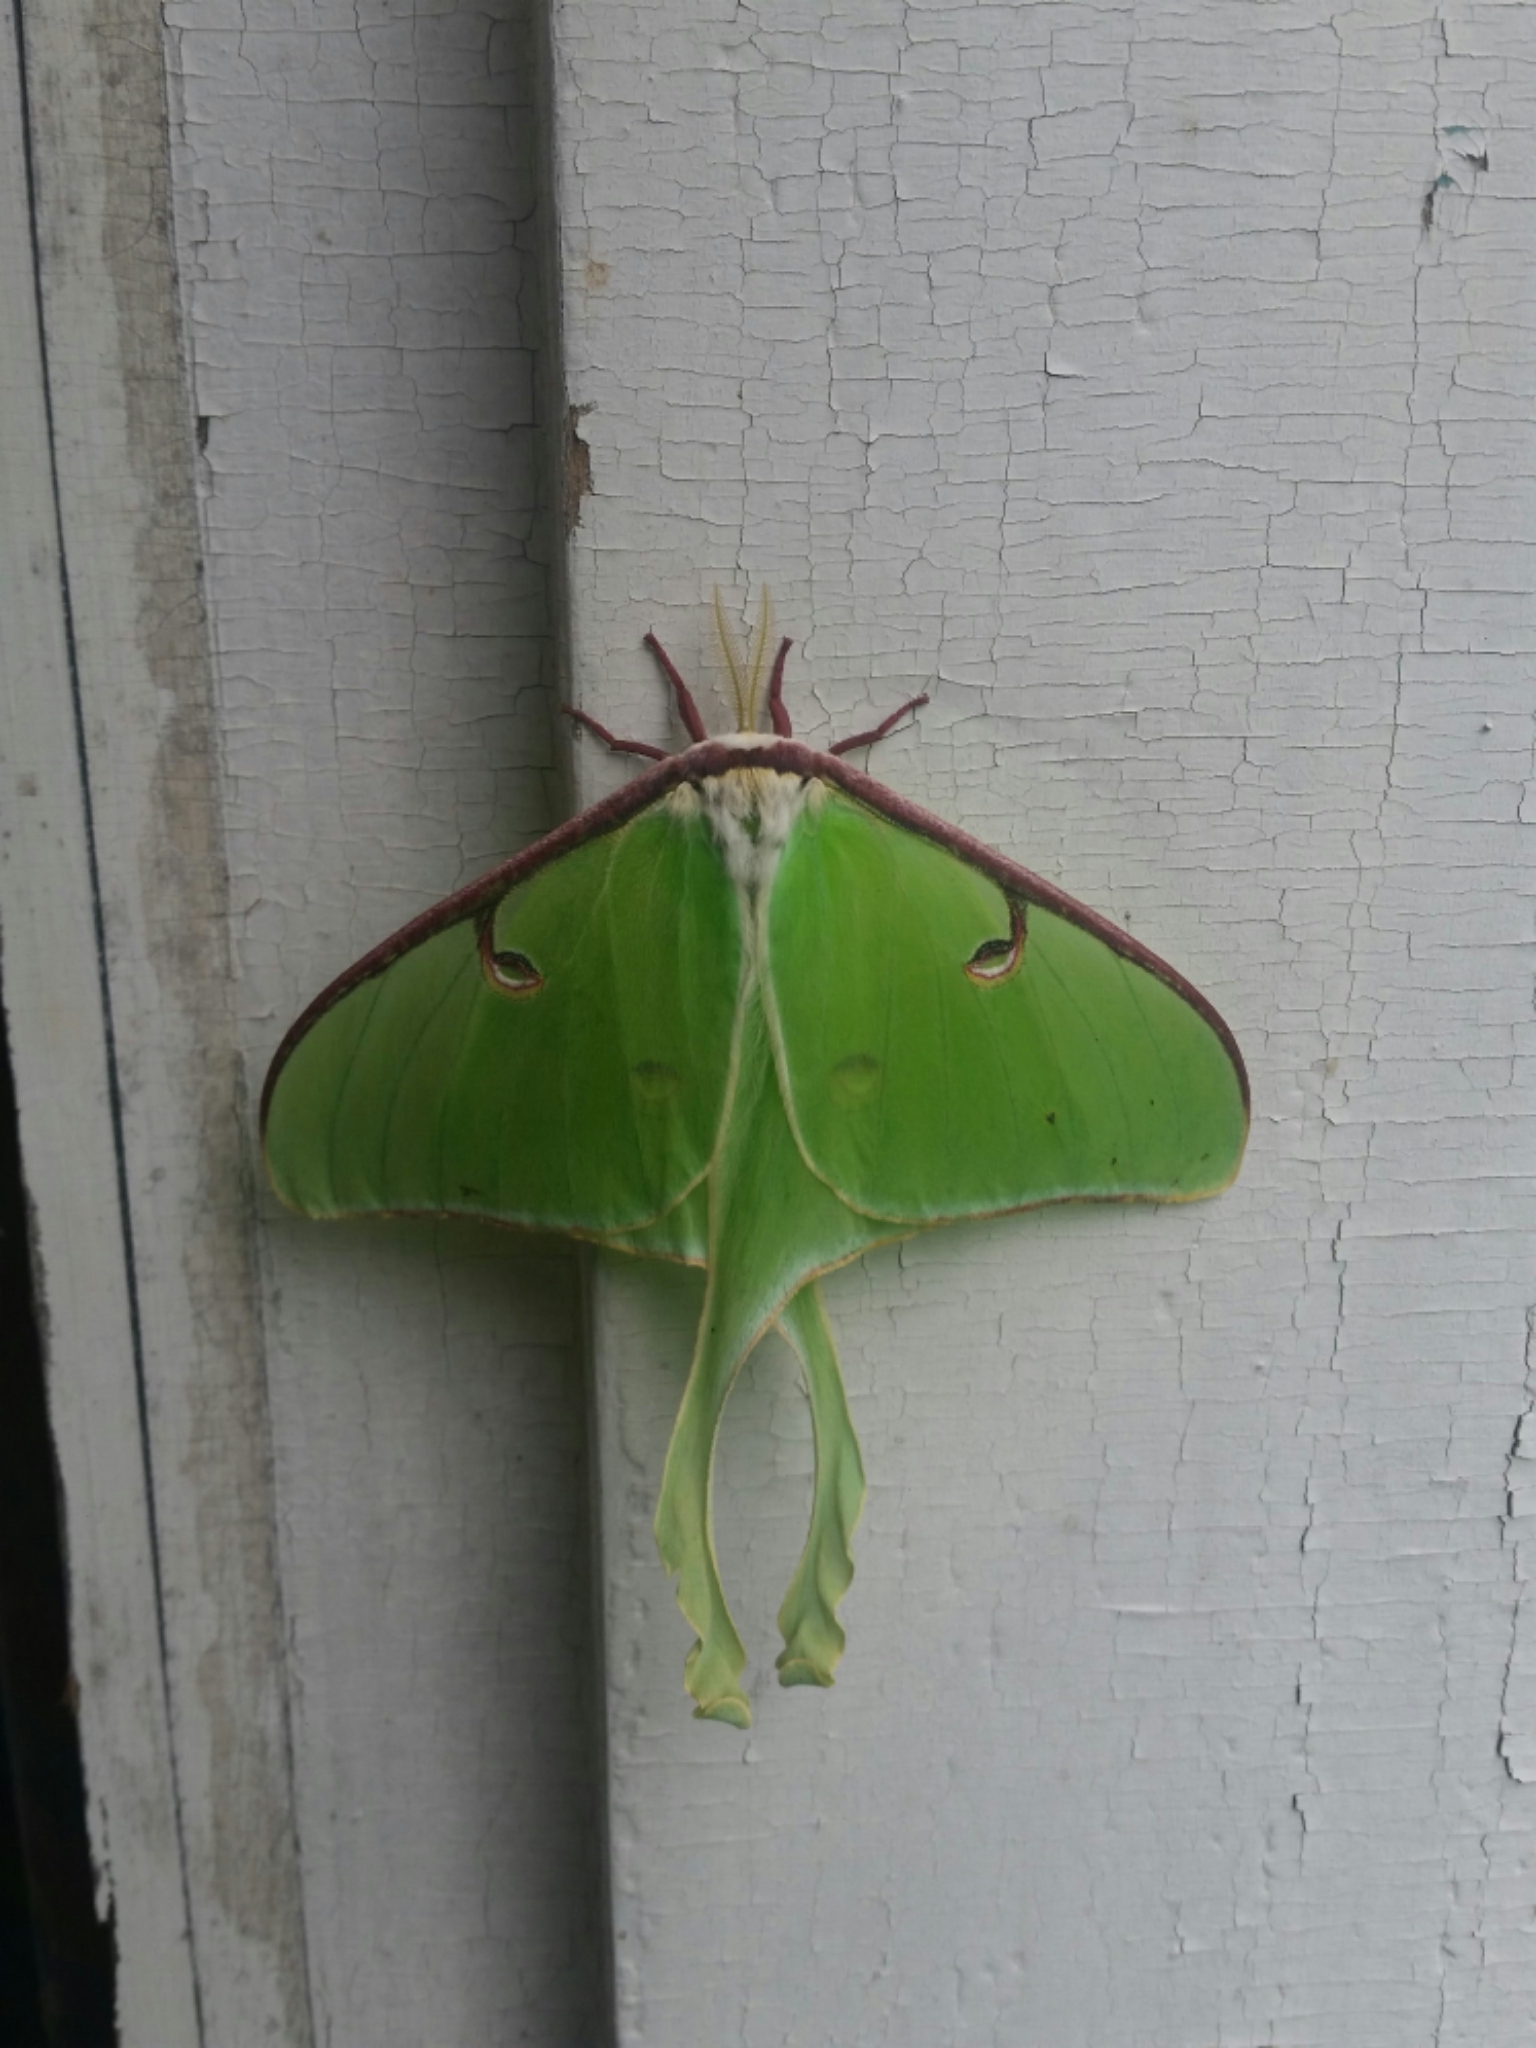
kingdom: Animalia
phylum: Arthropoda
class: Insecta
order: Lepidoptera
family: Saturniidae
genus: Actias
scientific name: Actias luna
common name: Luna moth
